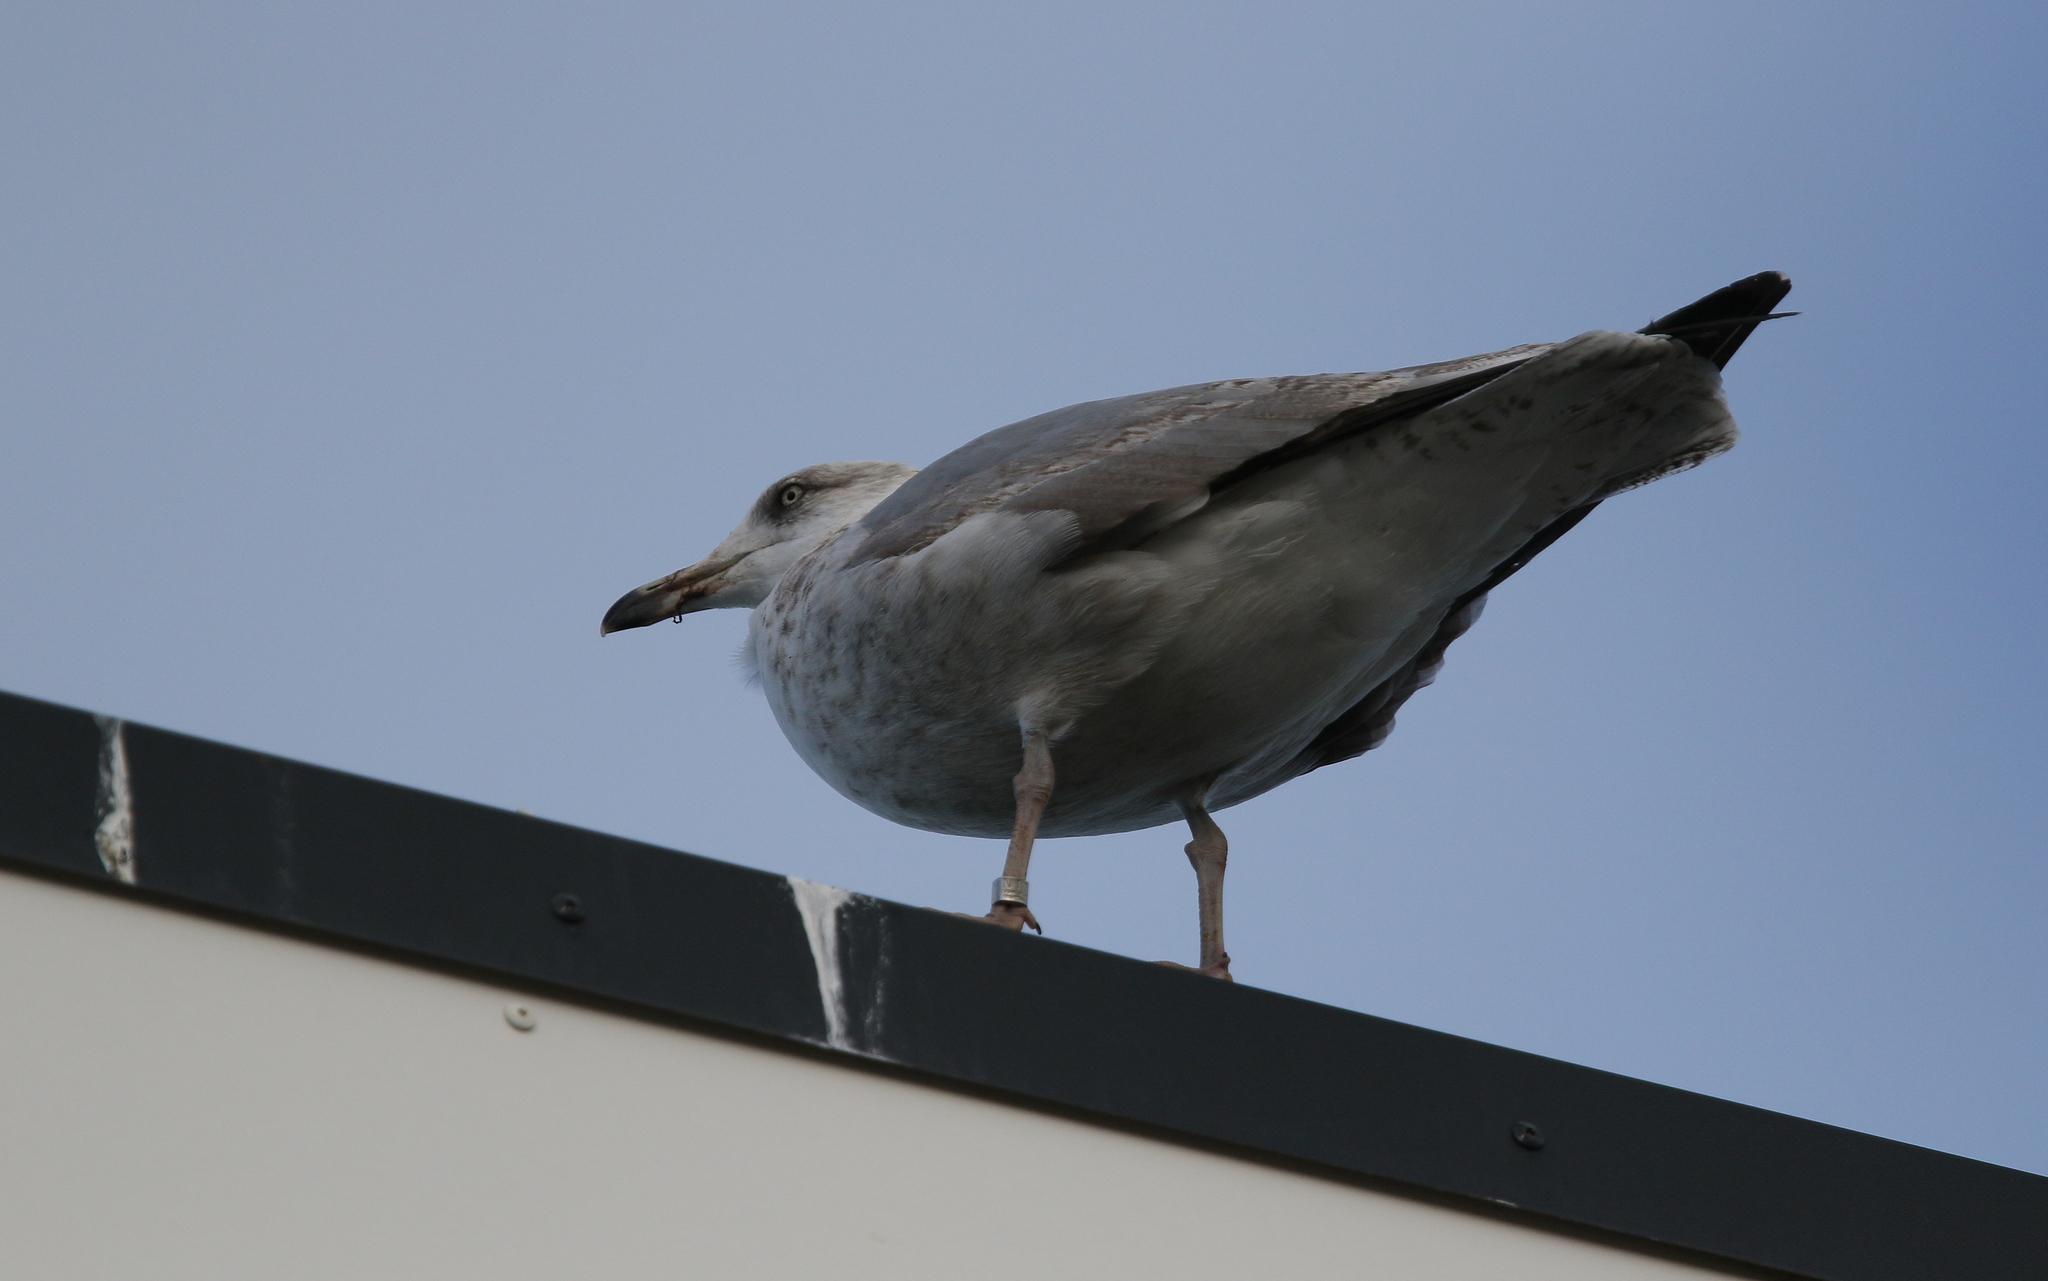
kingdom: Animalia
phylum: Chordata
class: Aves
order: Charadriiformes
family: Laridae
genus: Larus
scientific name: Larus argentatus
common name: Herring gull
